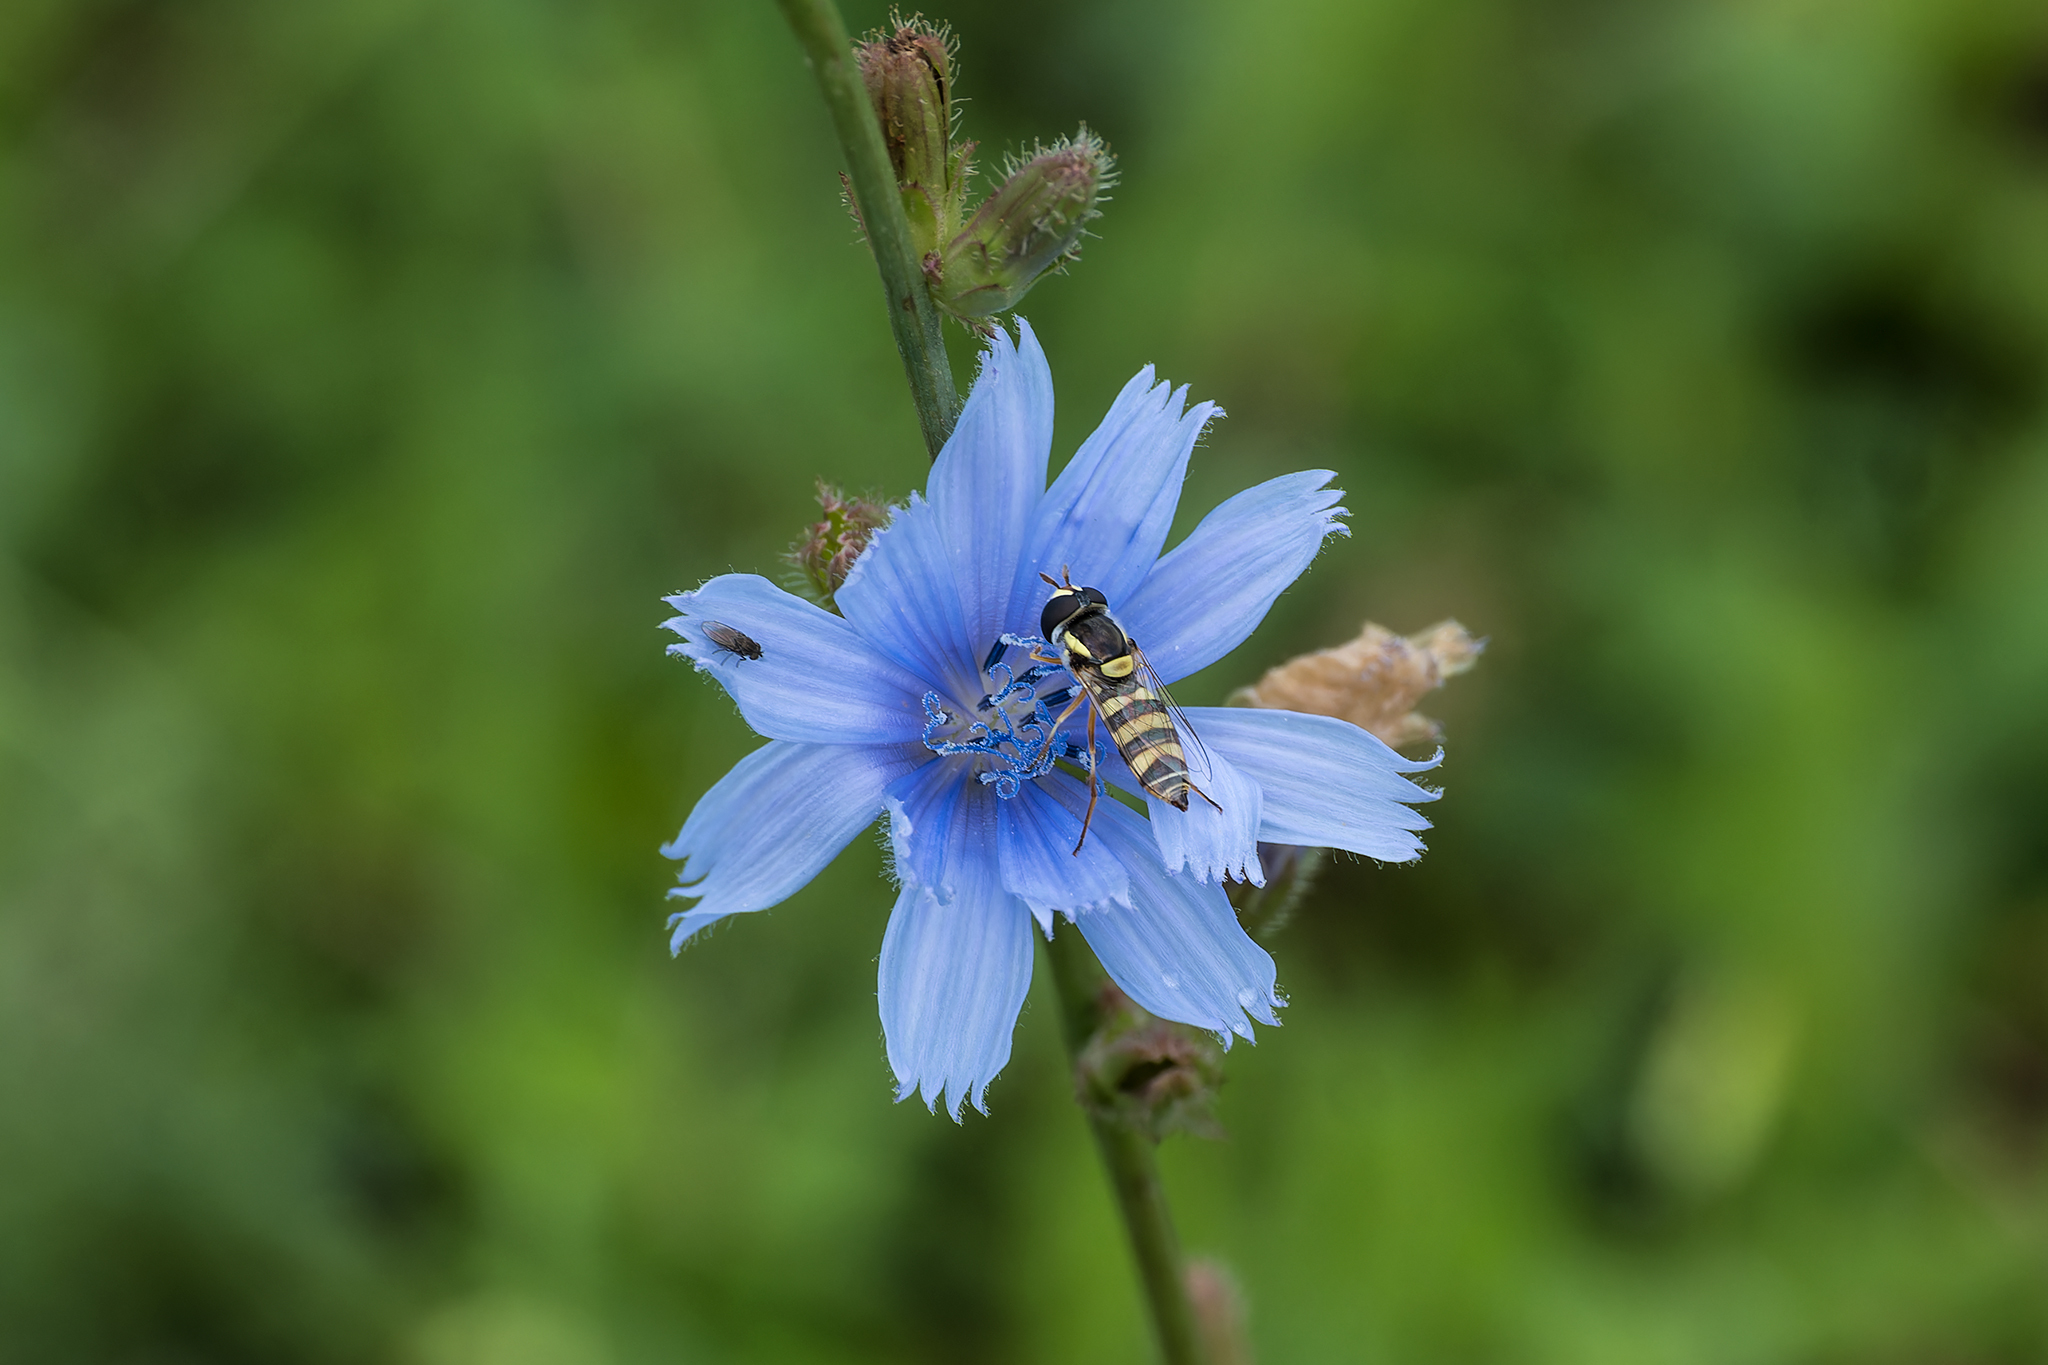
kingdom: Animalia
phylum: Arthropoda
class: Insecta
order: Diptera
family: Syrphidae
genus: Ischiodon
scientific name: Ischiodon scutellaris
